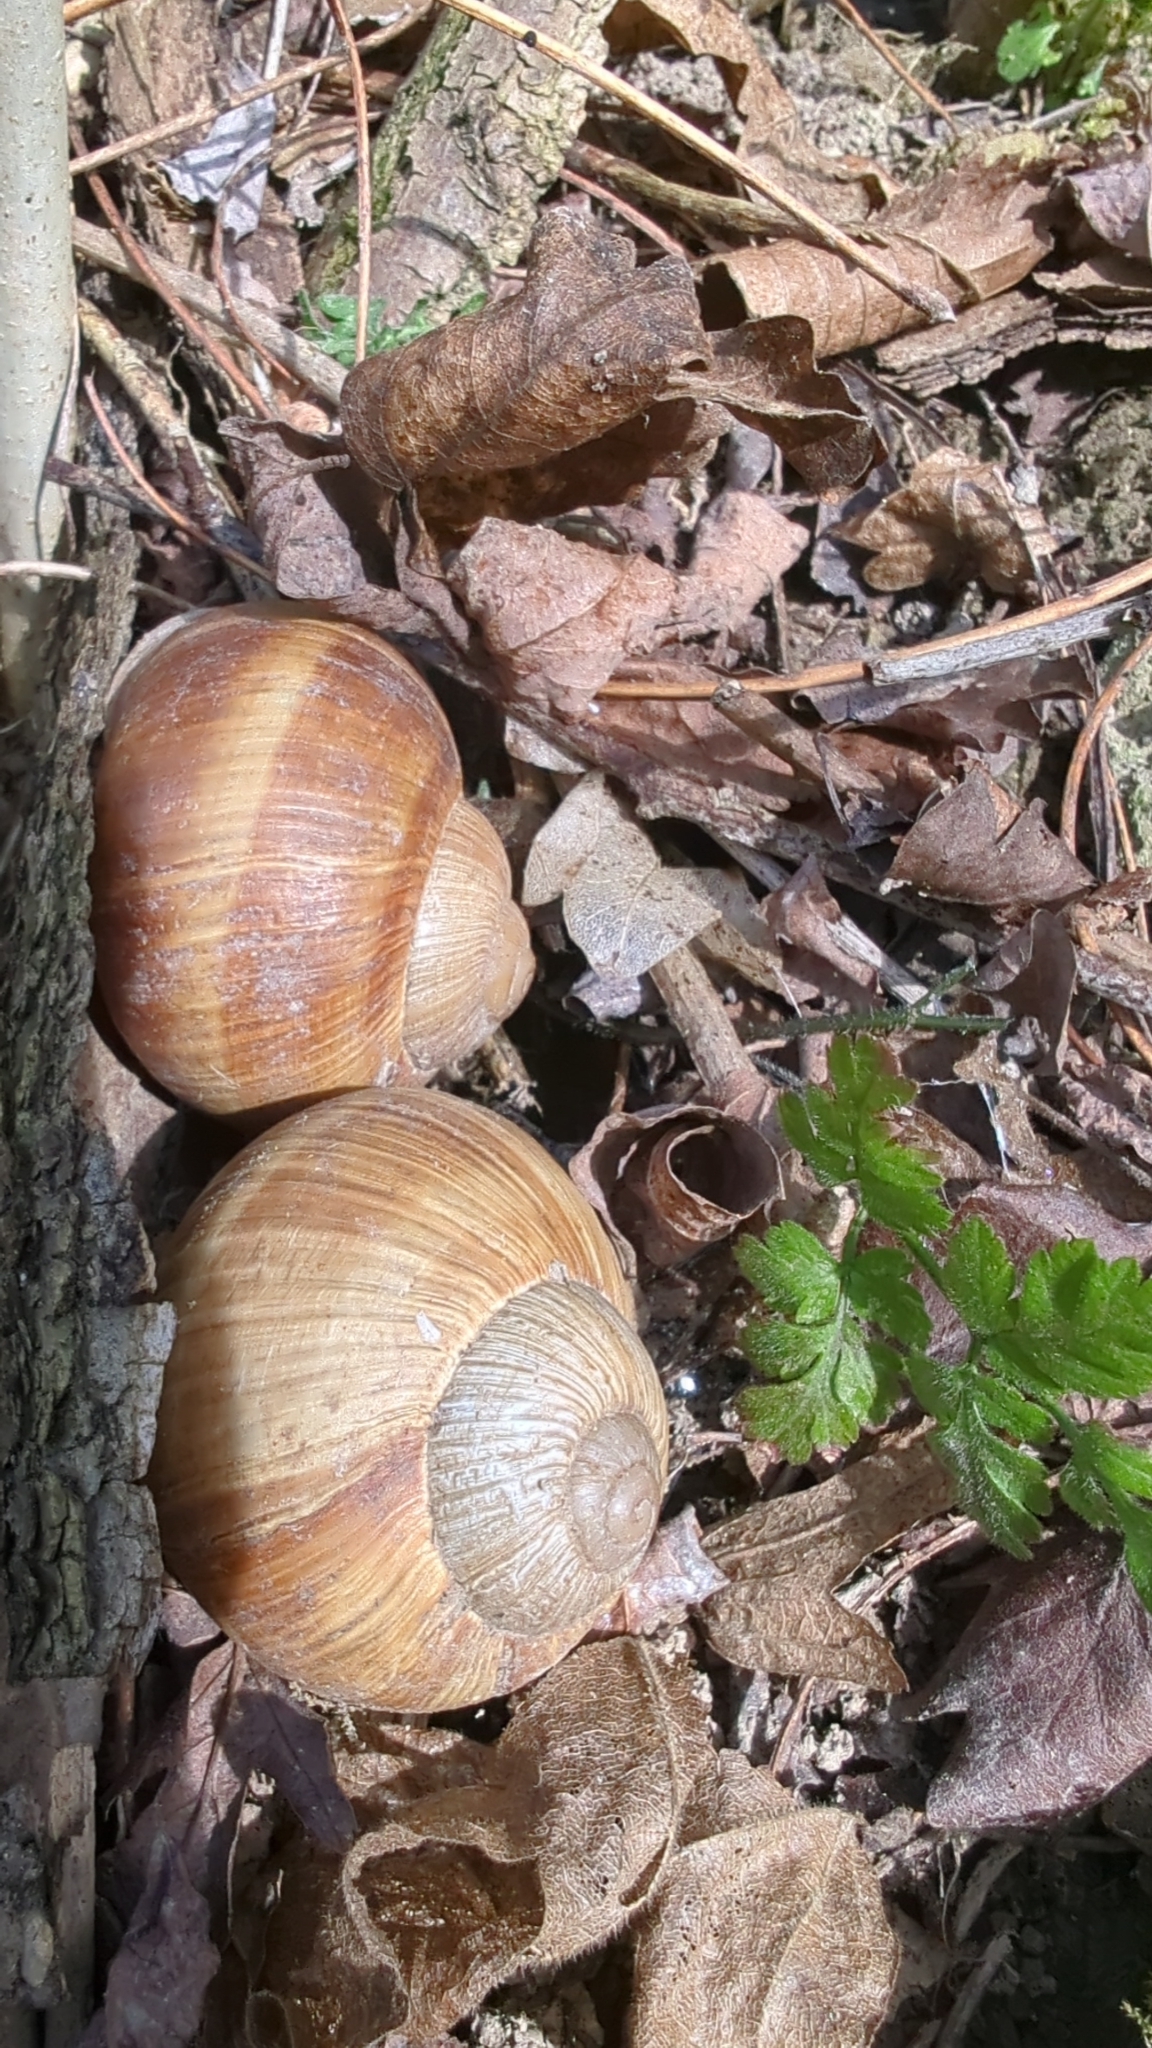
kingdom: Animalia
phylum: Mollusca
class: Gastropoda
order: Stylommatophora
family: Helicidae
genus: Helix
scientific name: Helix pomatia
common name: Roman snail
